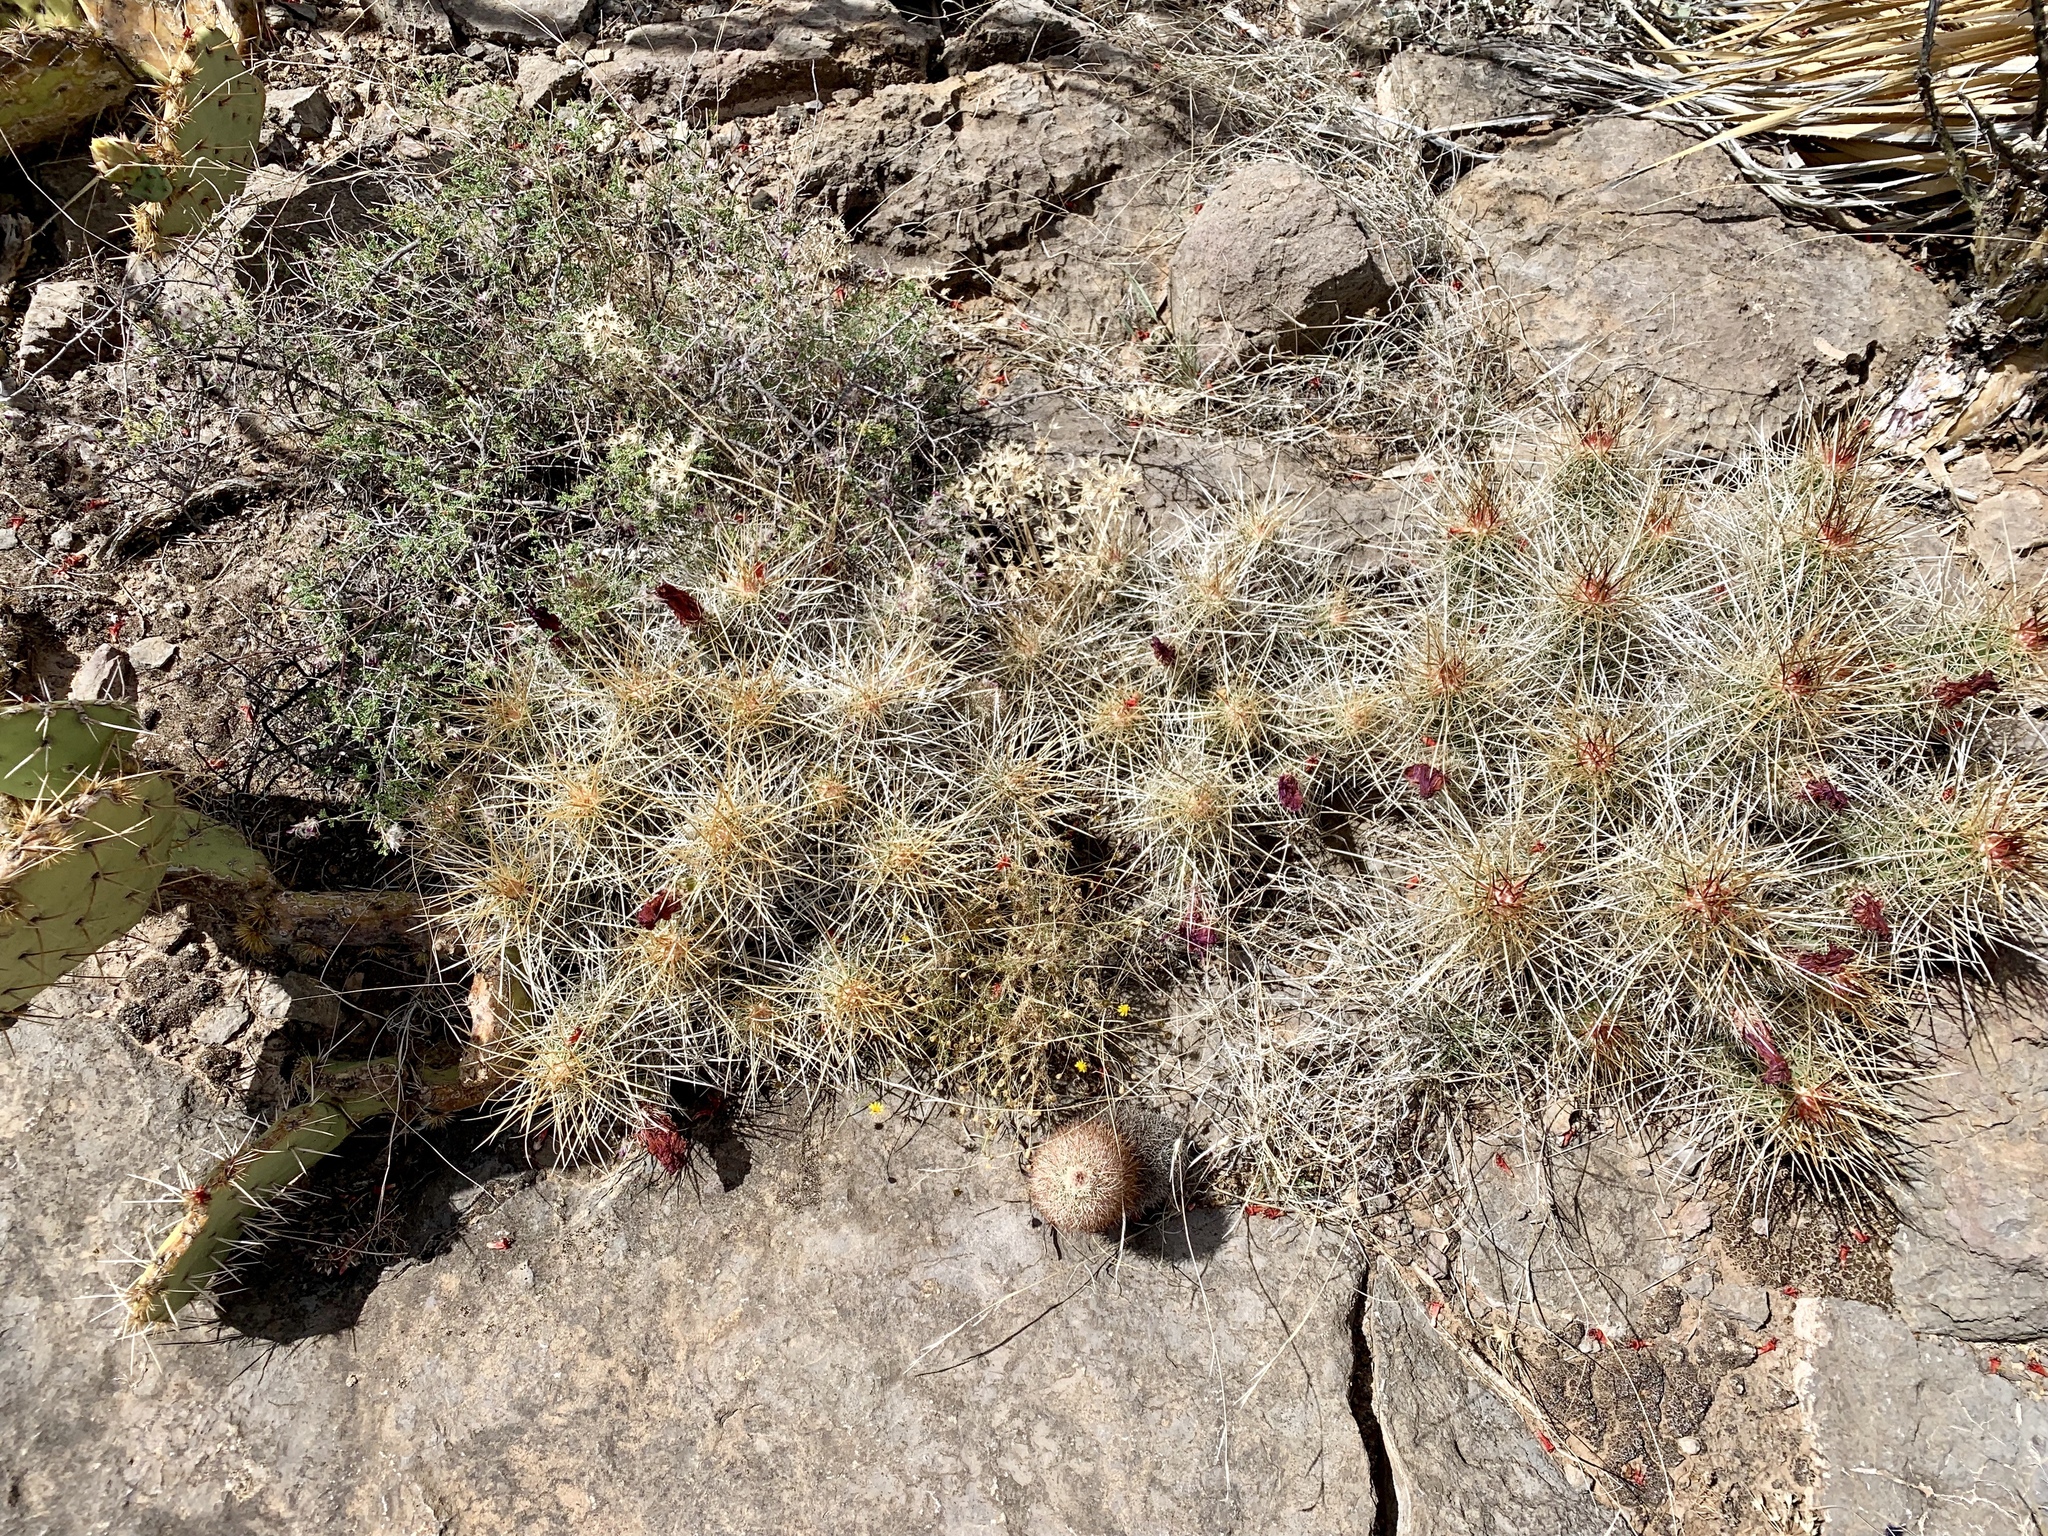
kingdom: Plantae
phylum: Tracheophyta
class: Magnoliopsida
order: Caryophyllales
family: Cactaceae
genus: Echinocereus
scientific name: Echinocereus stramineus
